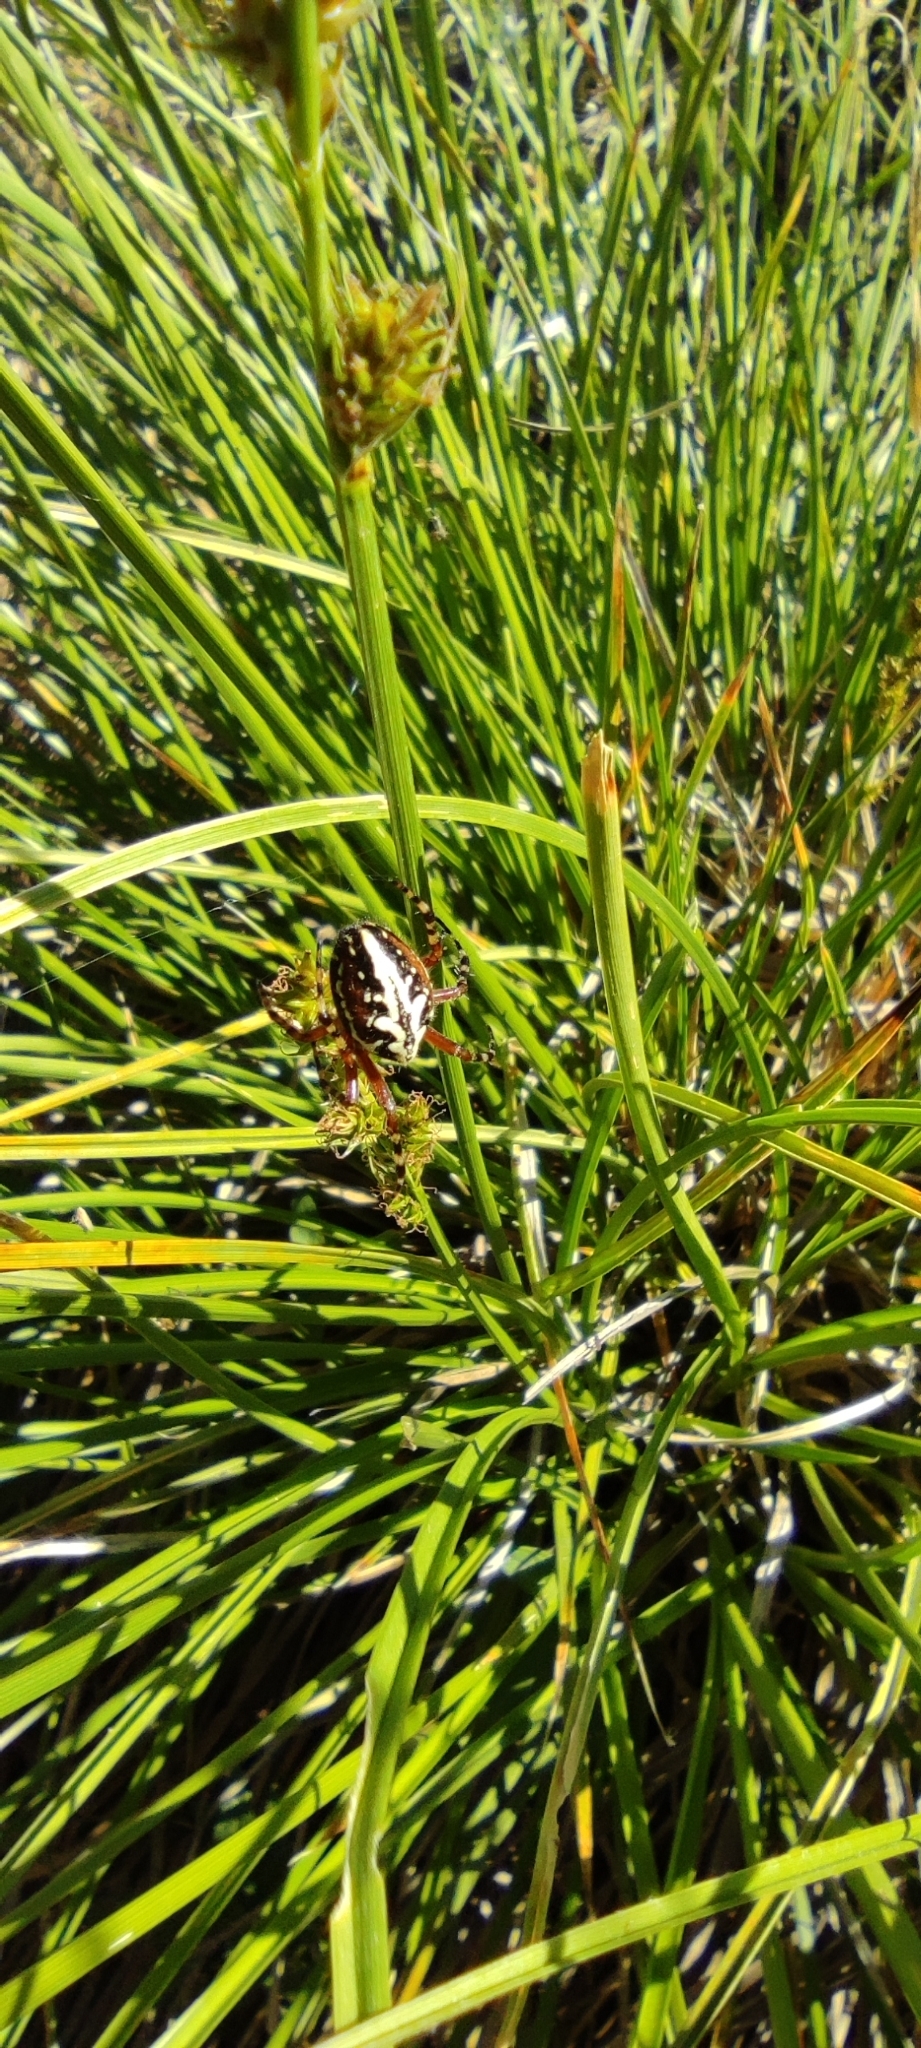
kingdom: Animalia
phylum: Arthropoda
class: Arachnida
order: Araneae
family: Araneidae
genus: Aculepeira
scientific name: Aculepeira armida
